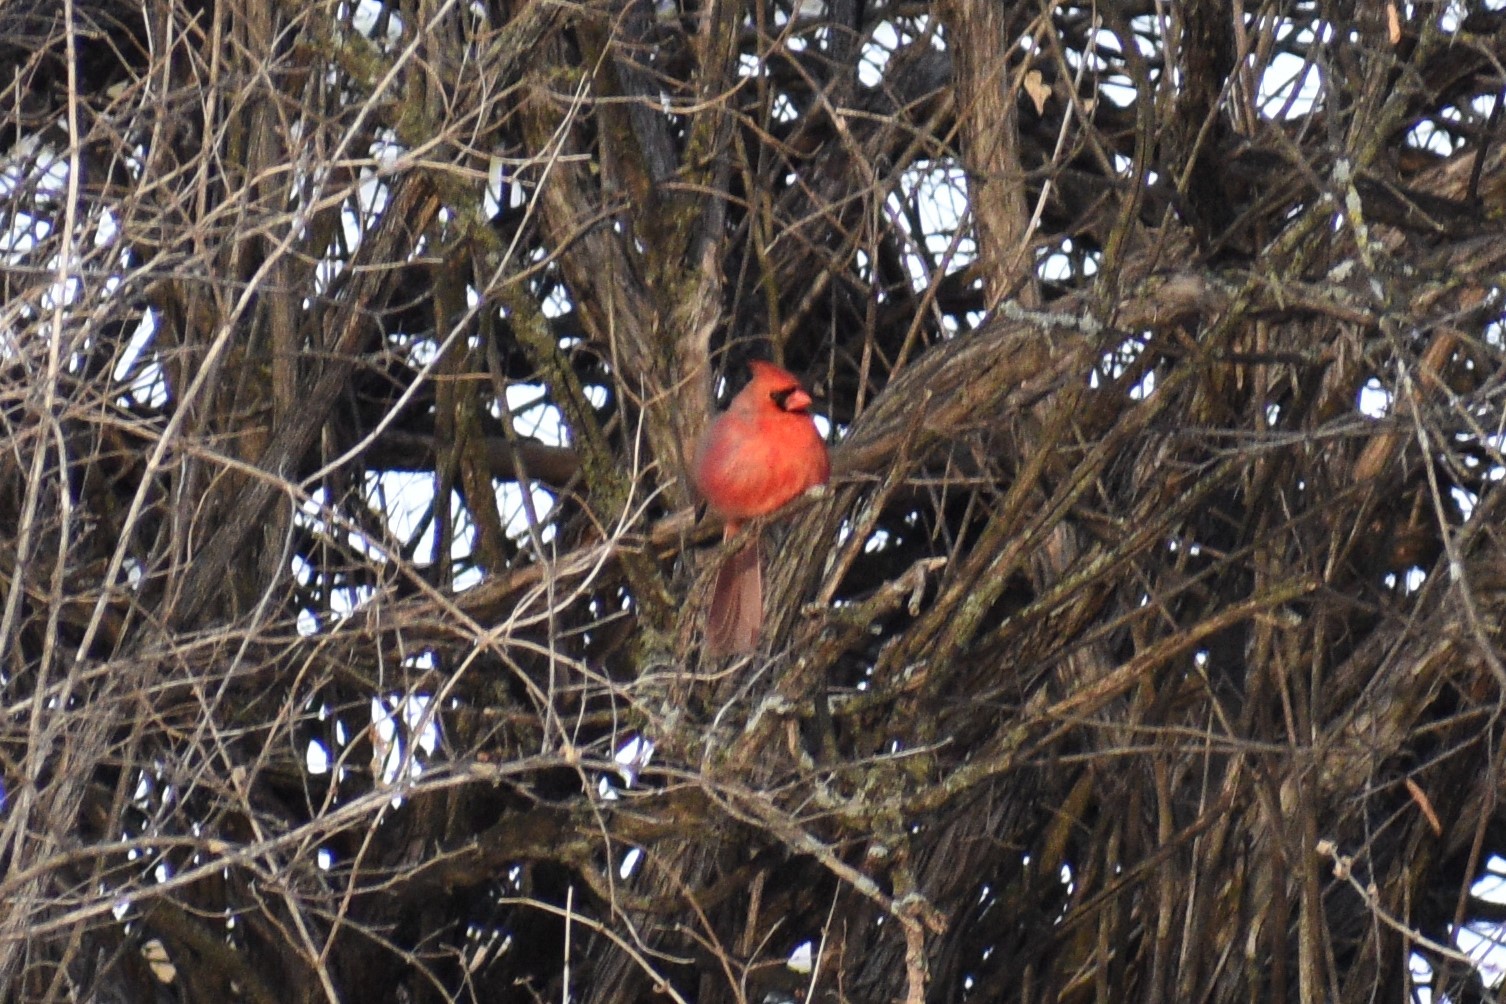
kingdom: Animalia
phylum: Chordata
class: Aves
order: Passeriformes
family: Cardinalidae
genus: Cardinalis
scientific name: Cardinalis cardinalis
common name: Northern cardinal
